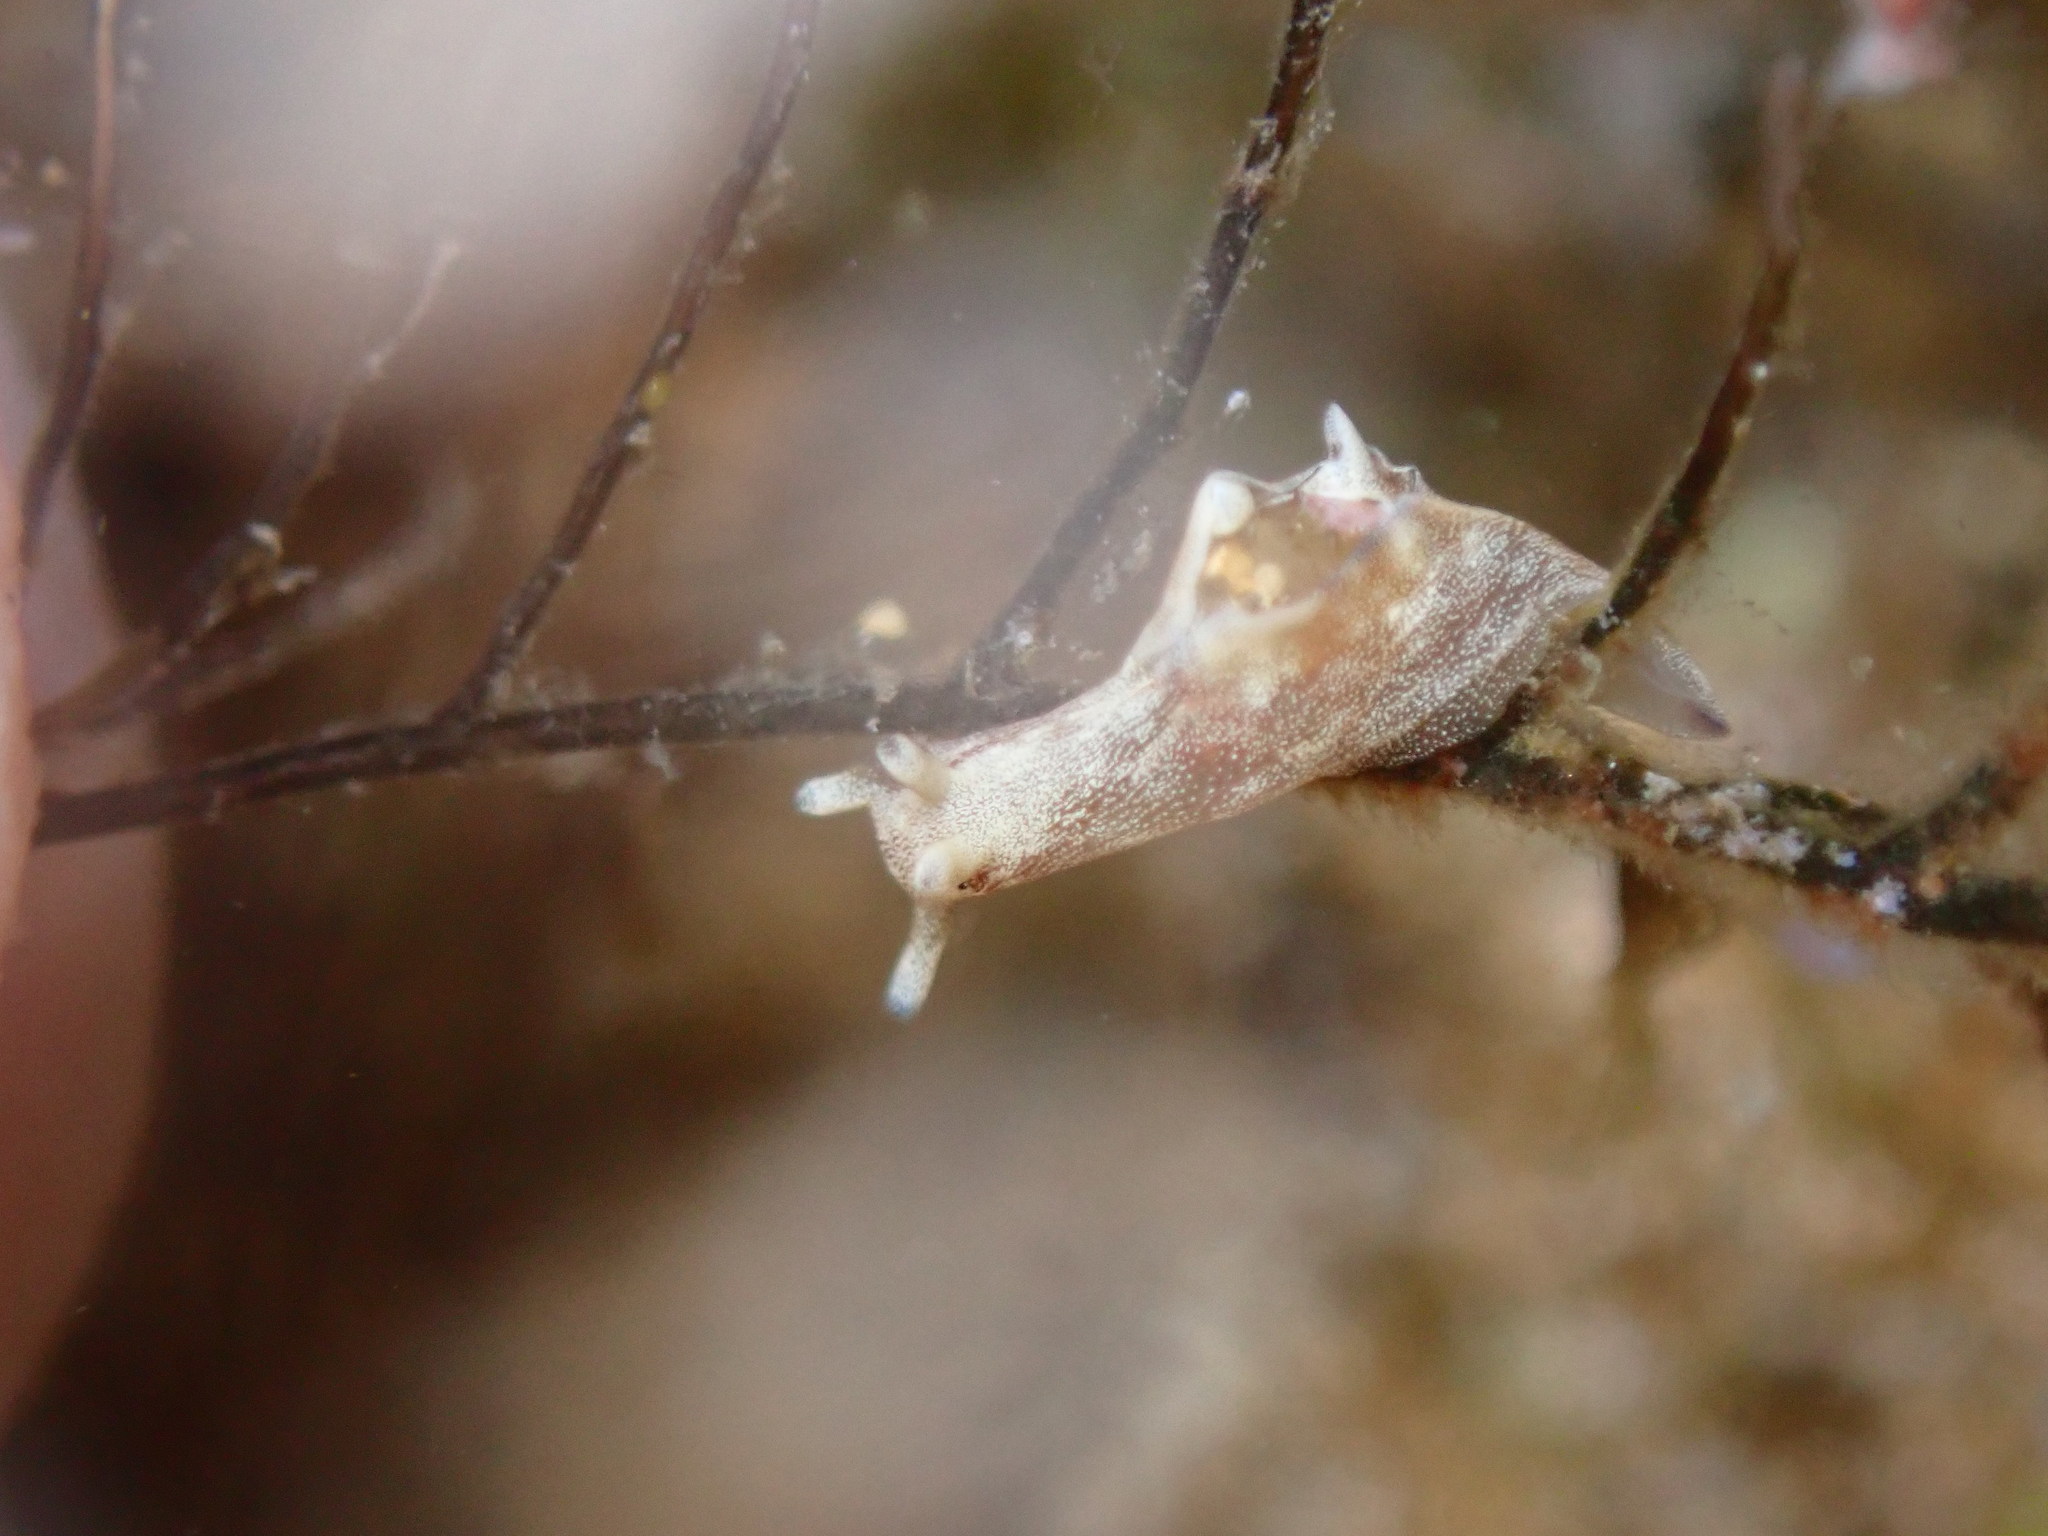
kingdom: Animalia
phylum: Mollusca
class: Gastropoda
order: Aplysiida
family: Aplysiidae
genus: Aplysia
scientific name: Aplysia elongata
